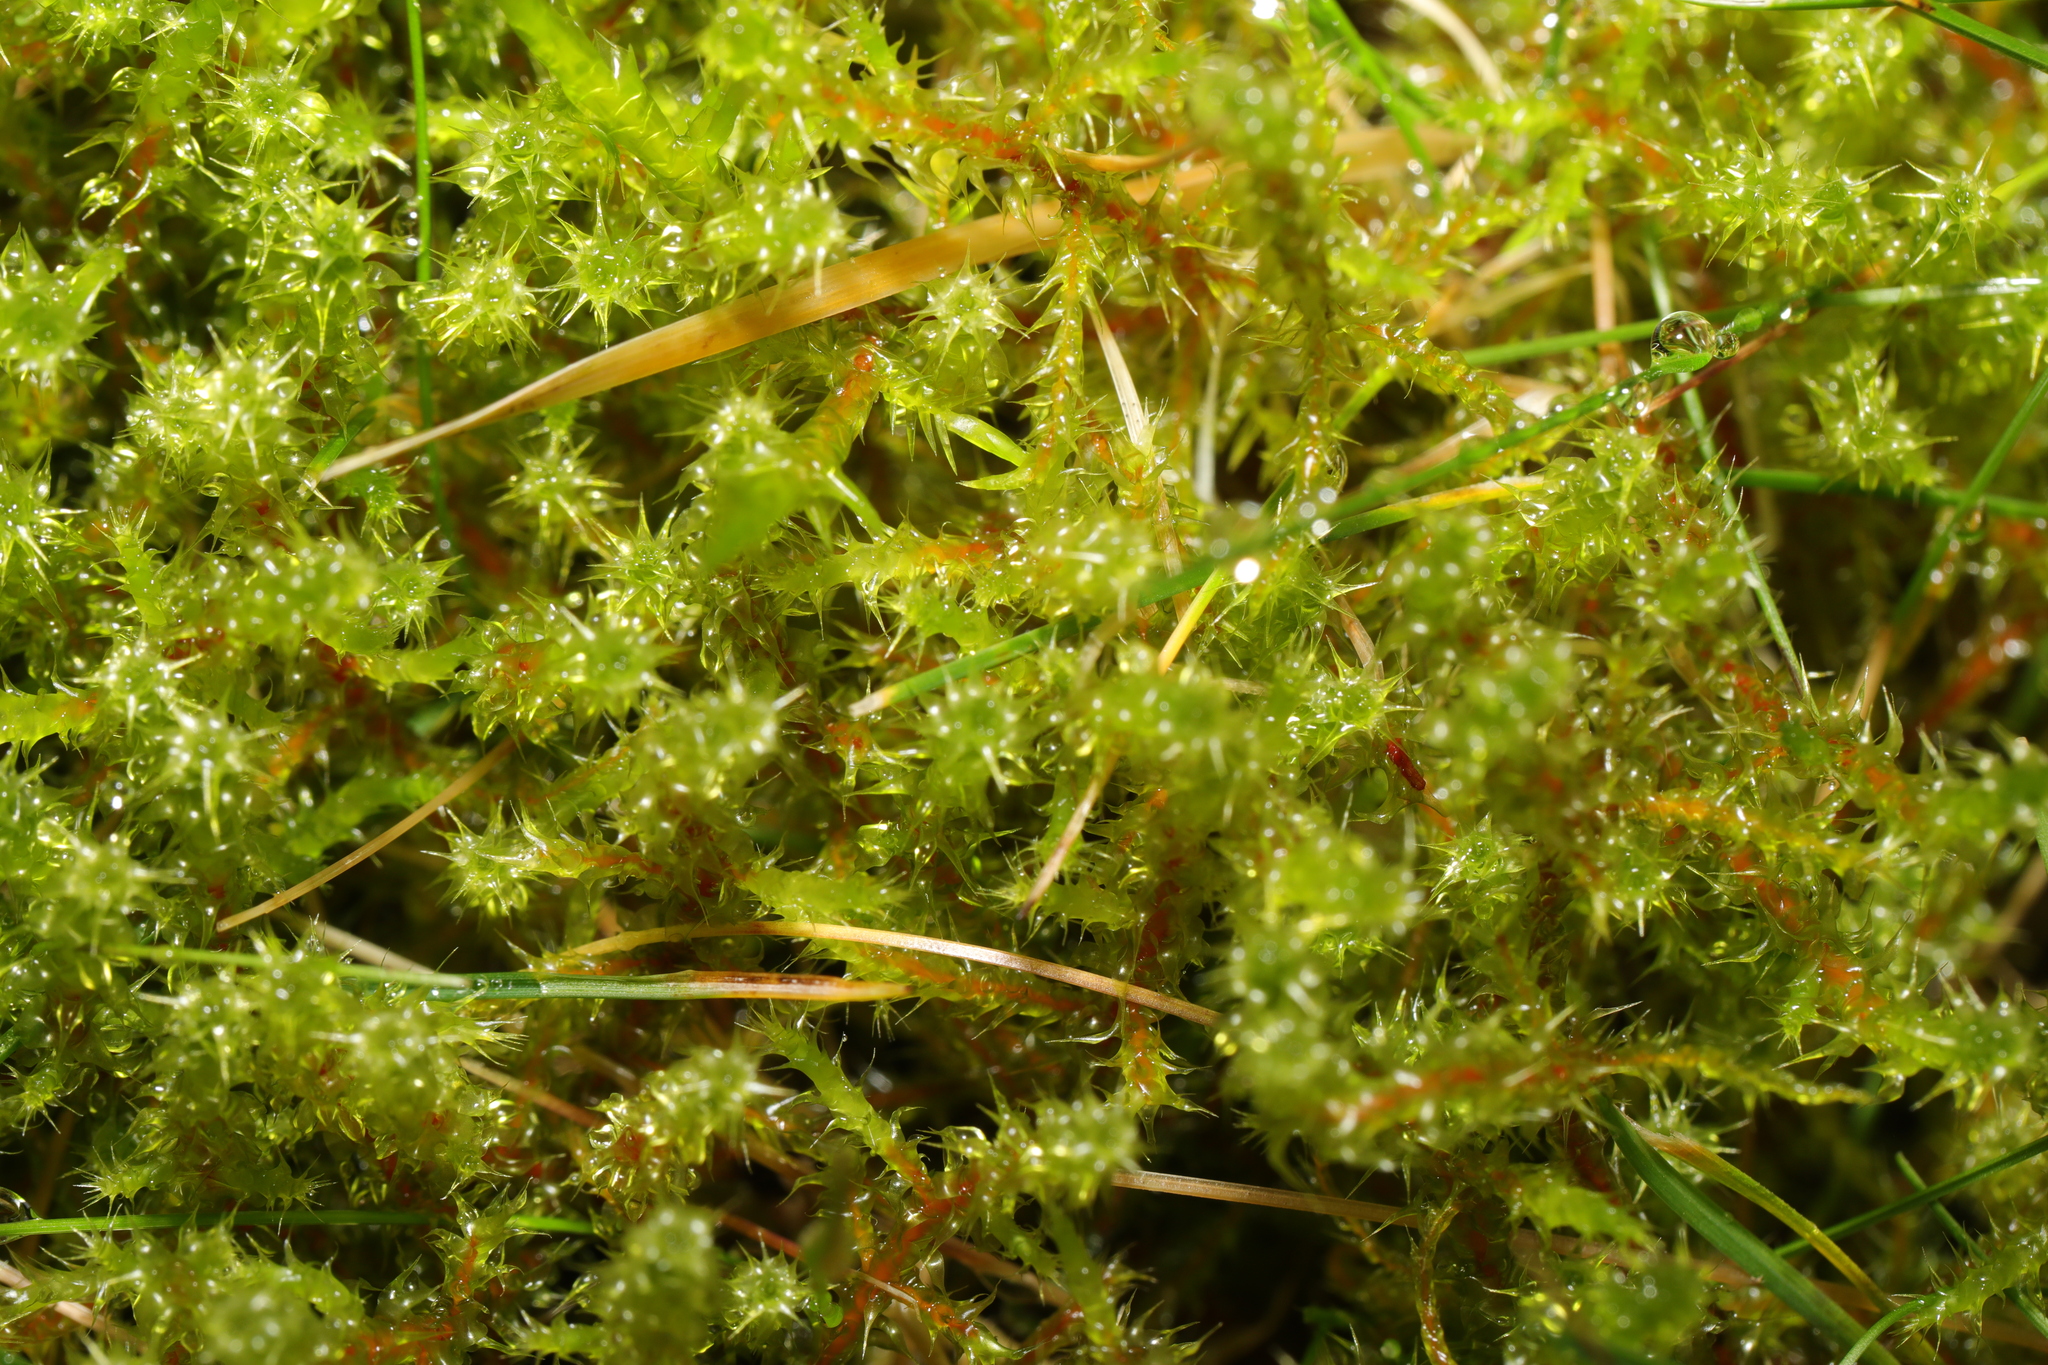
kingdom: Plantae
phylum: Bryophyta
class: Bryopsida
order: Hypnales
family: Hylocomiaceae
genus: Rhytidiadelphus
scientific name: Rhytidiadelphus squarrosus
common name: Springy turf-moss
